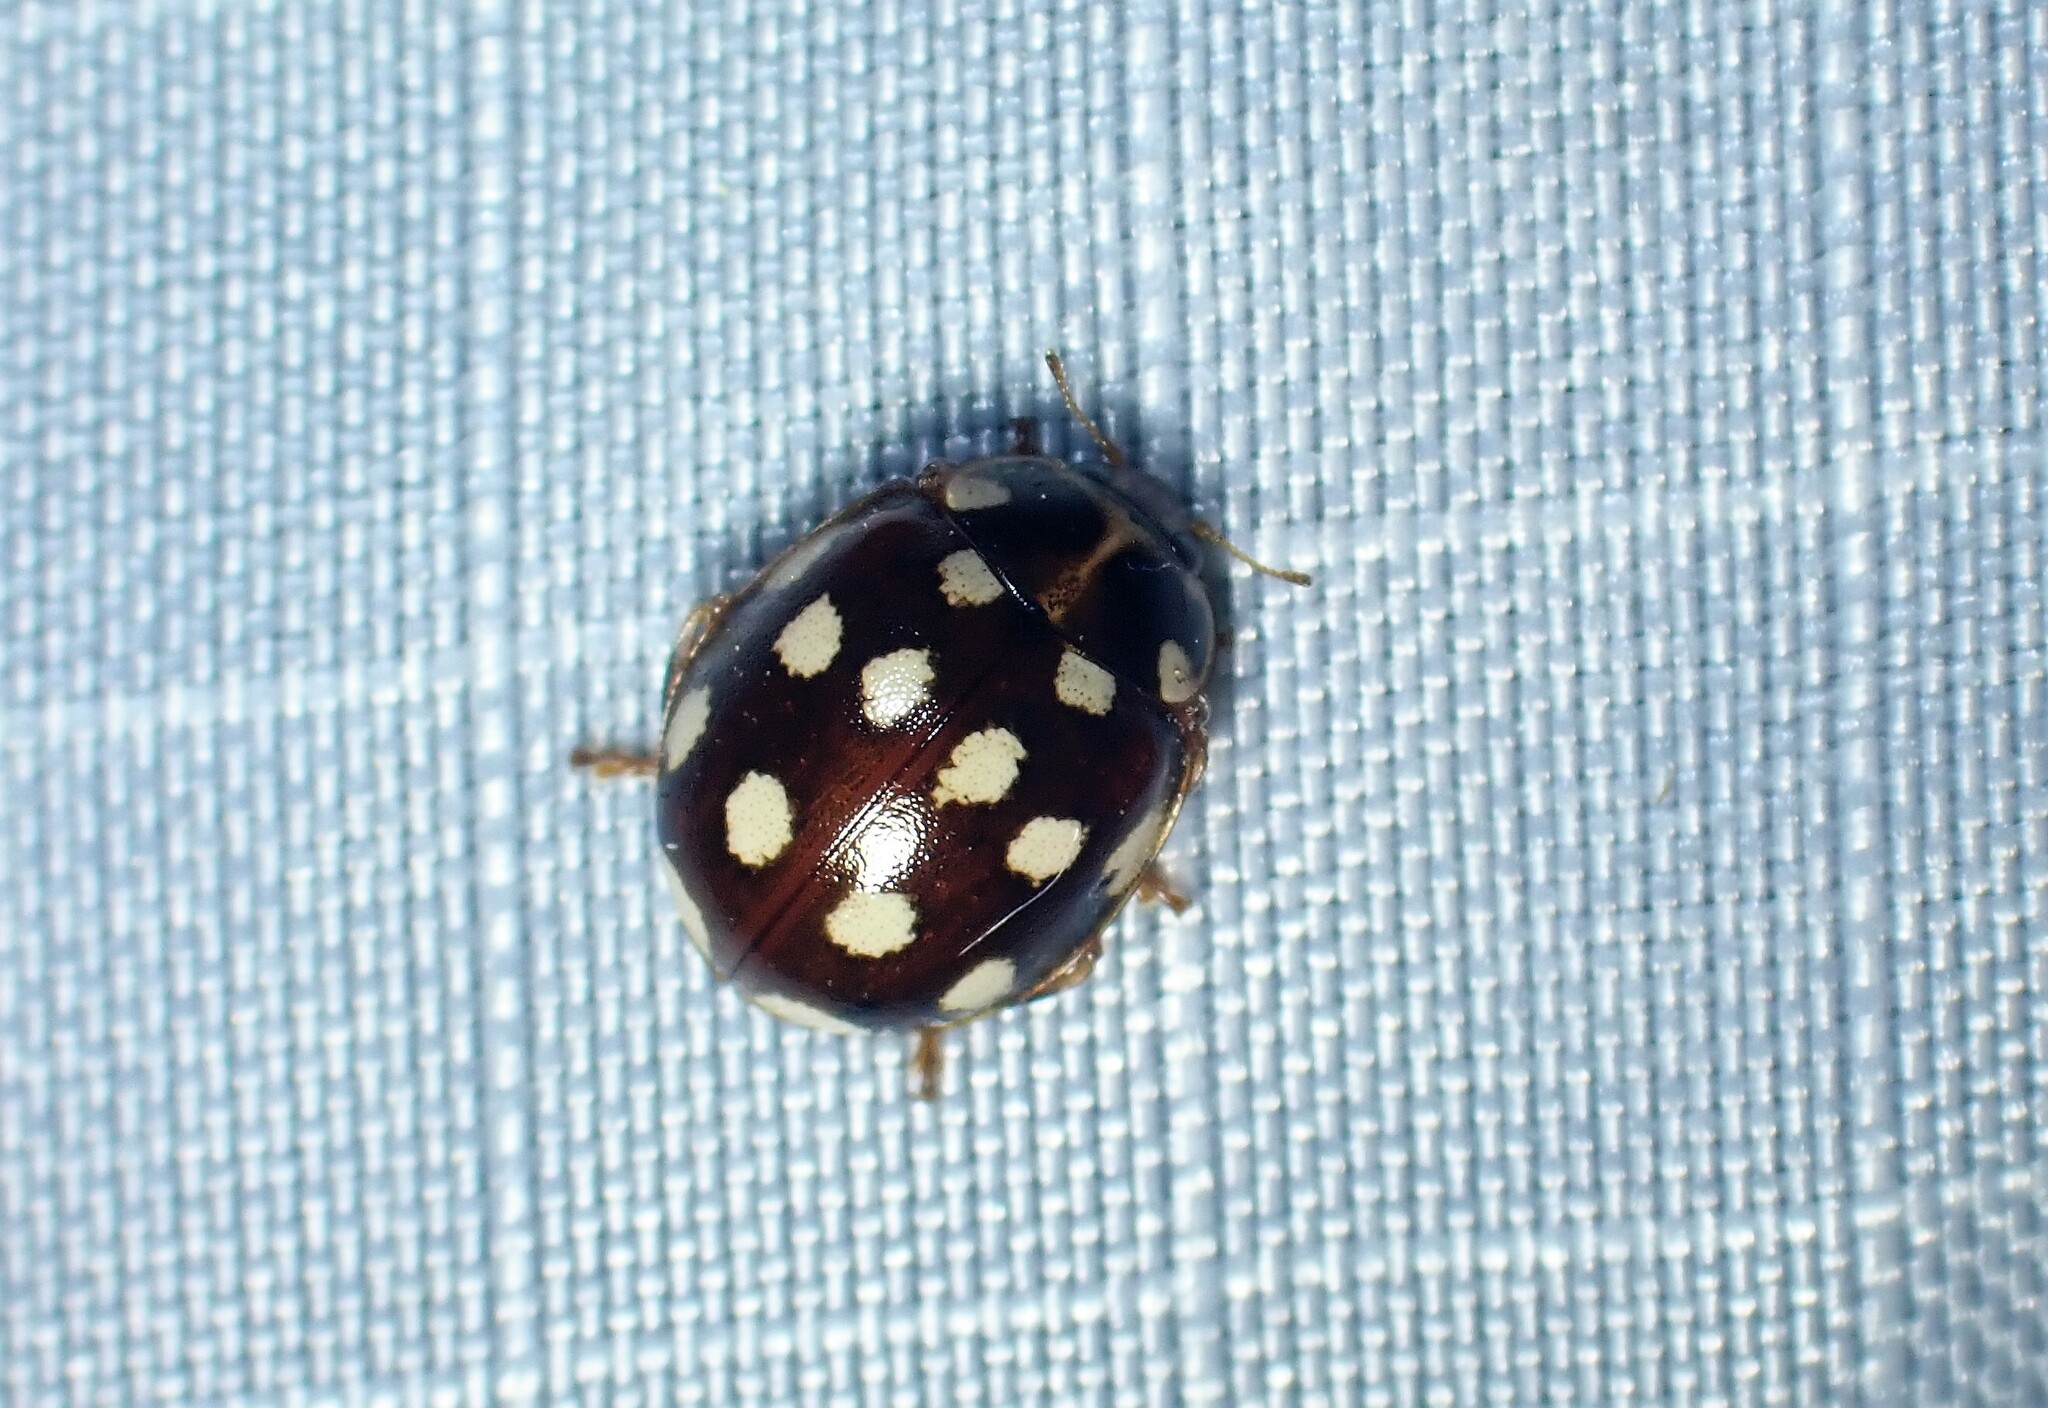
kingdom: Animalia
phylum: Arthropoda
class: Insecta
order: Coleoptera
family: Coccinellidae
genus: Calvia
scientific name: Calvia quatuordecimguttata
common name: Cream-spot ladybird
